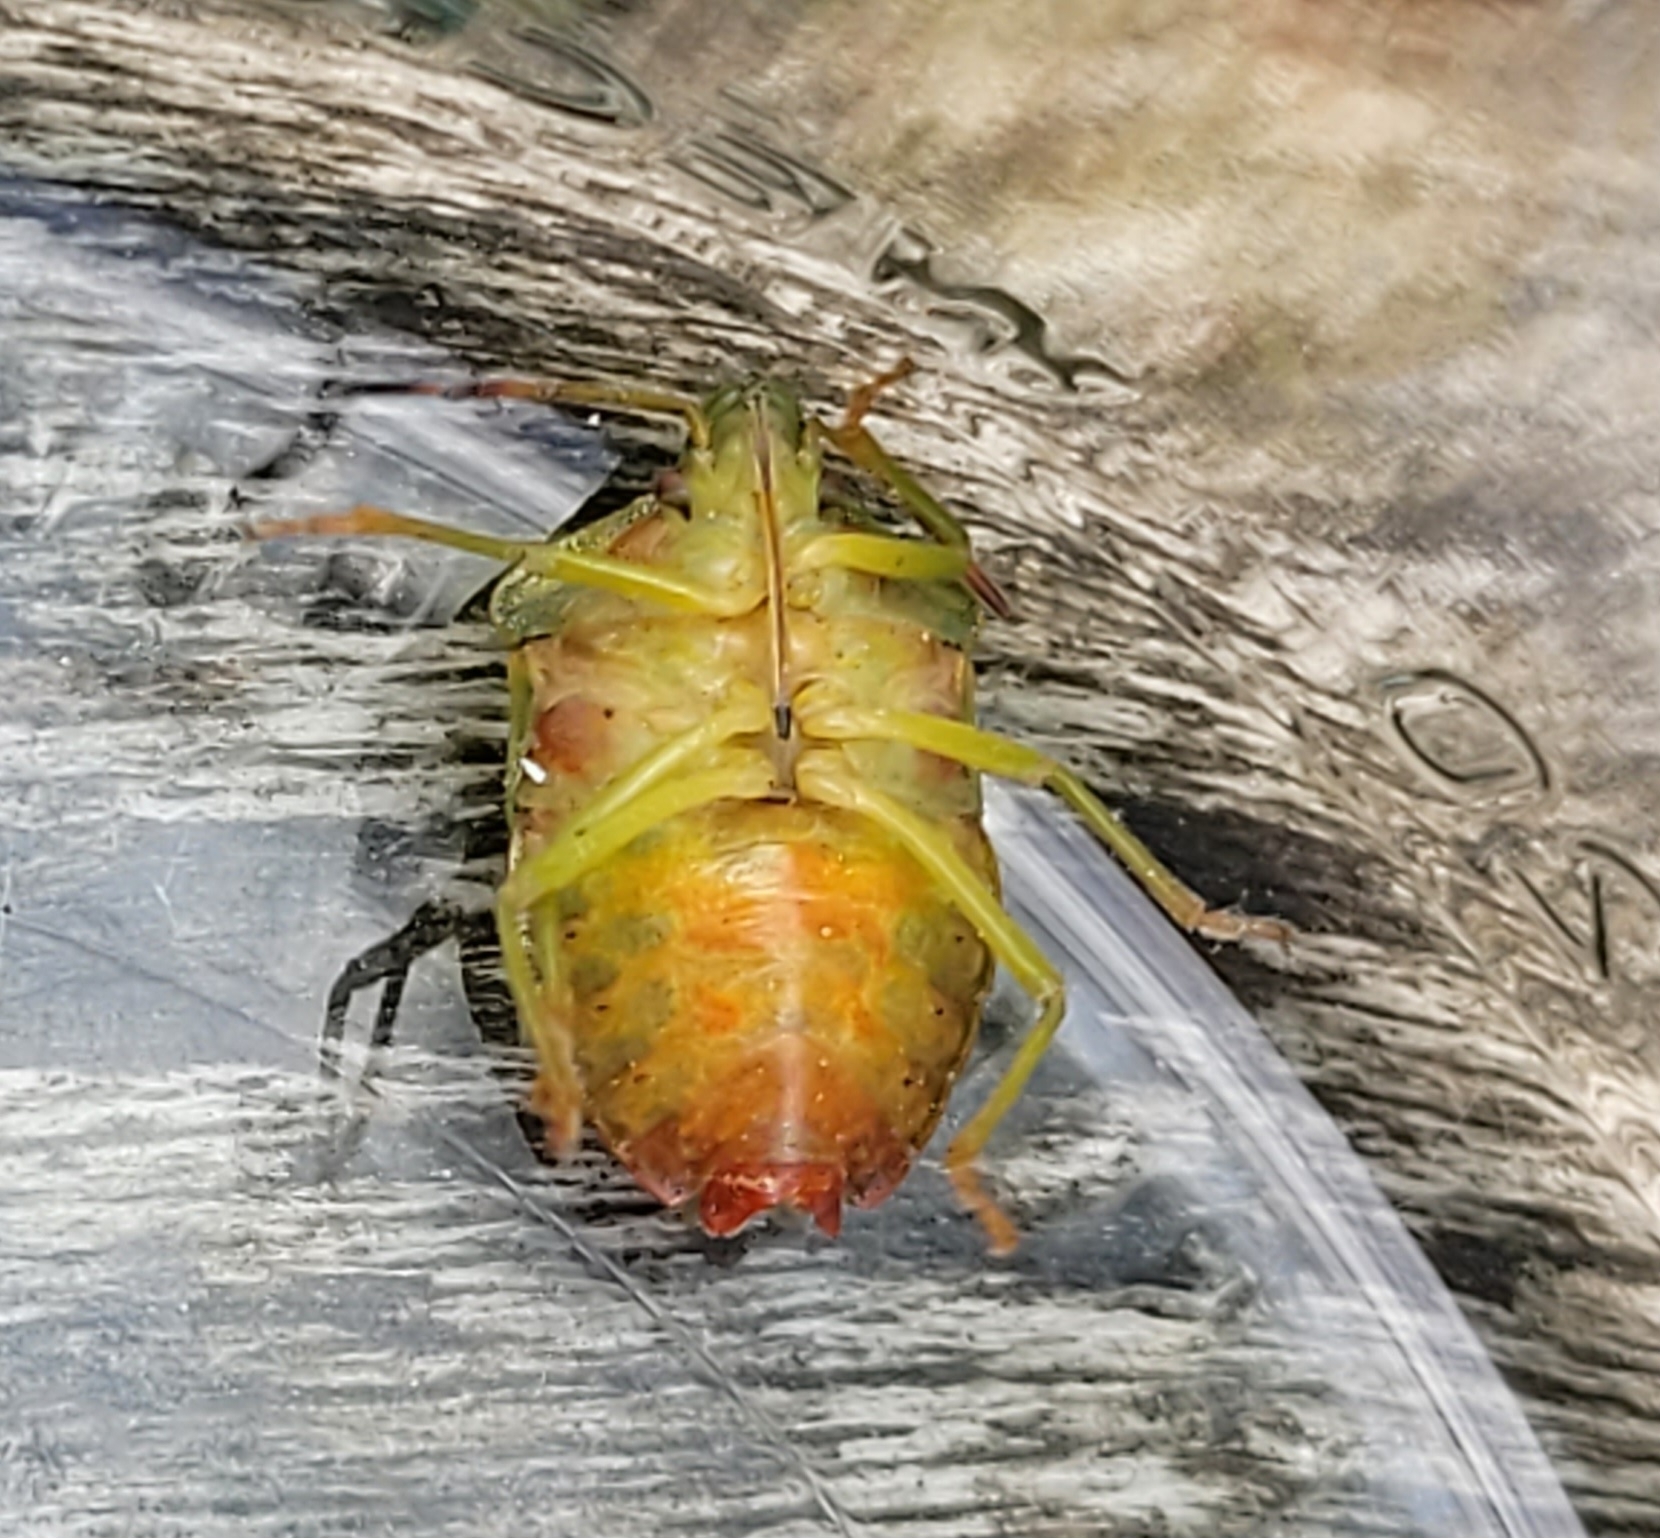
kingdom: Animalia
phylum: Arthropoda
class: Insecta
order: Hemiptera
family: Pentatomidae
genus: Palomena
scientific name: Palomena prasina
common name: Green shieldbug
